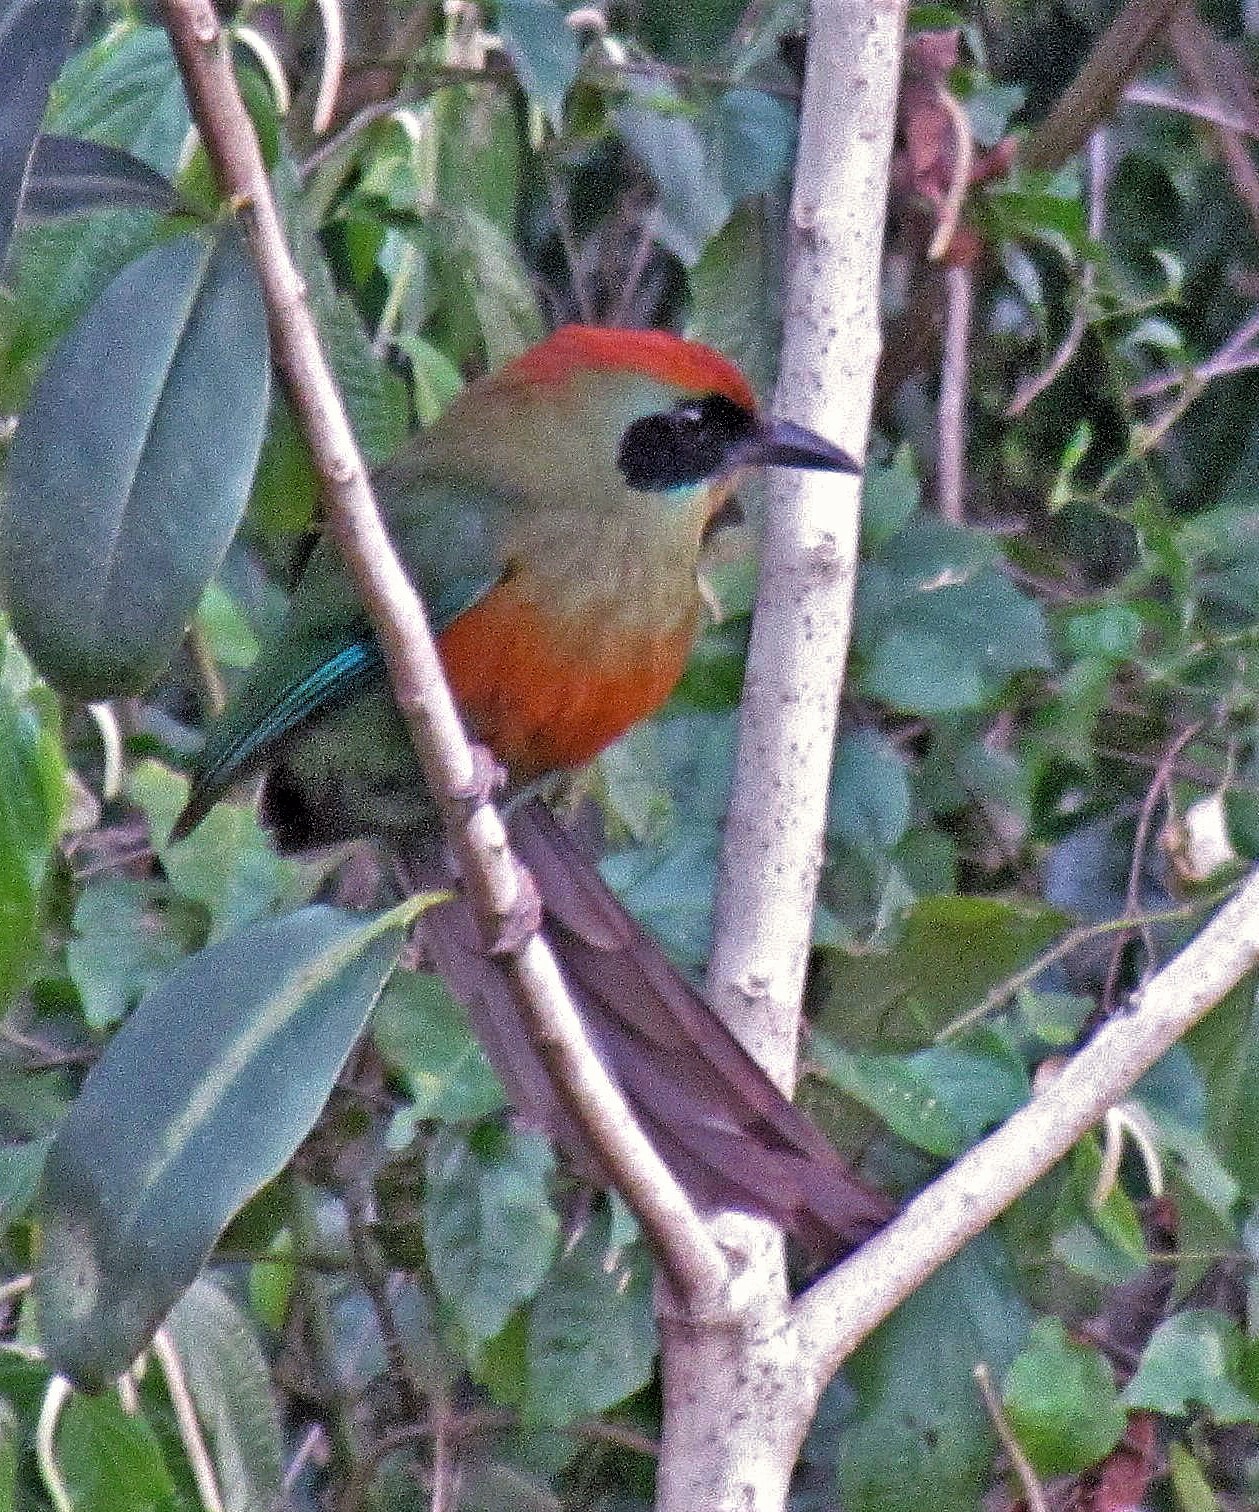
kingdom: Animalia
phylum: Chordata
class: Aves
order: Coraciiformes
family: Momotidae
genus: Baryphthengus
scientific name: Baryphthengus ruficapillus
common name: Rufous-capped motmot
